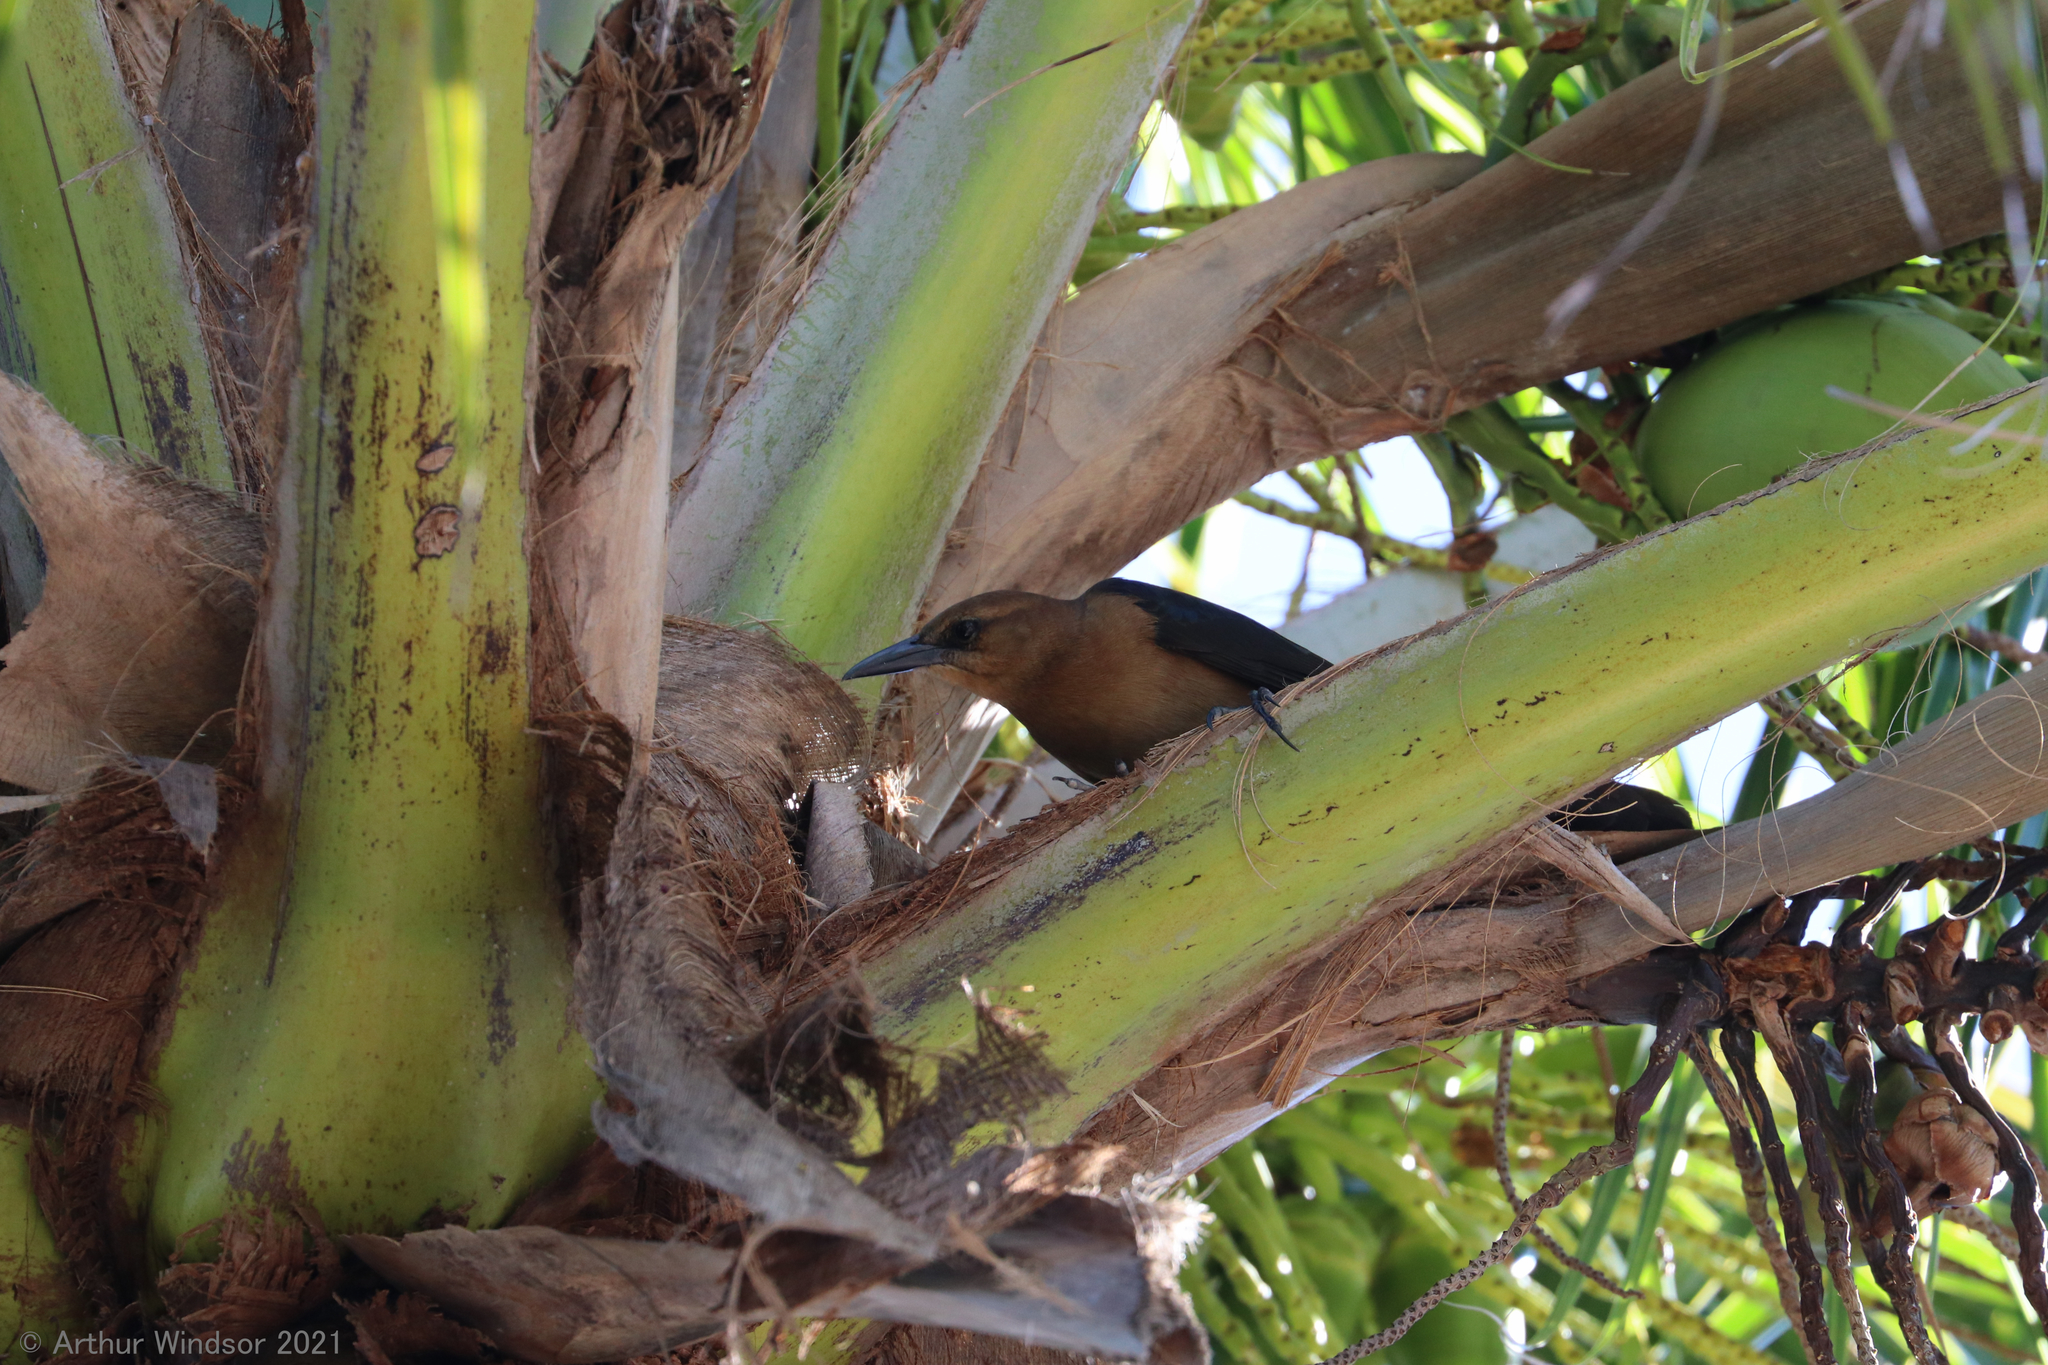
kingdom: Animalia
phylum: Chordata
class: Aves
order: Passeriformes
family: Icteridae
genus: Quiscalus
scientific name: Quiscalus major
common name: Boat-tailed grackle
